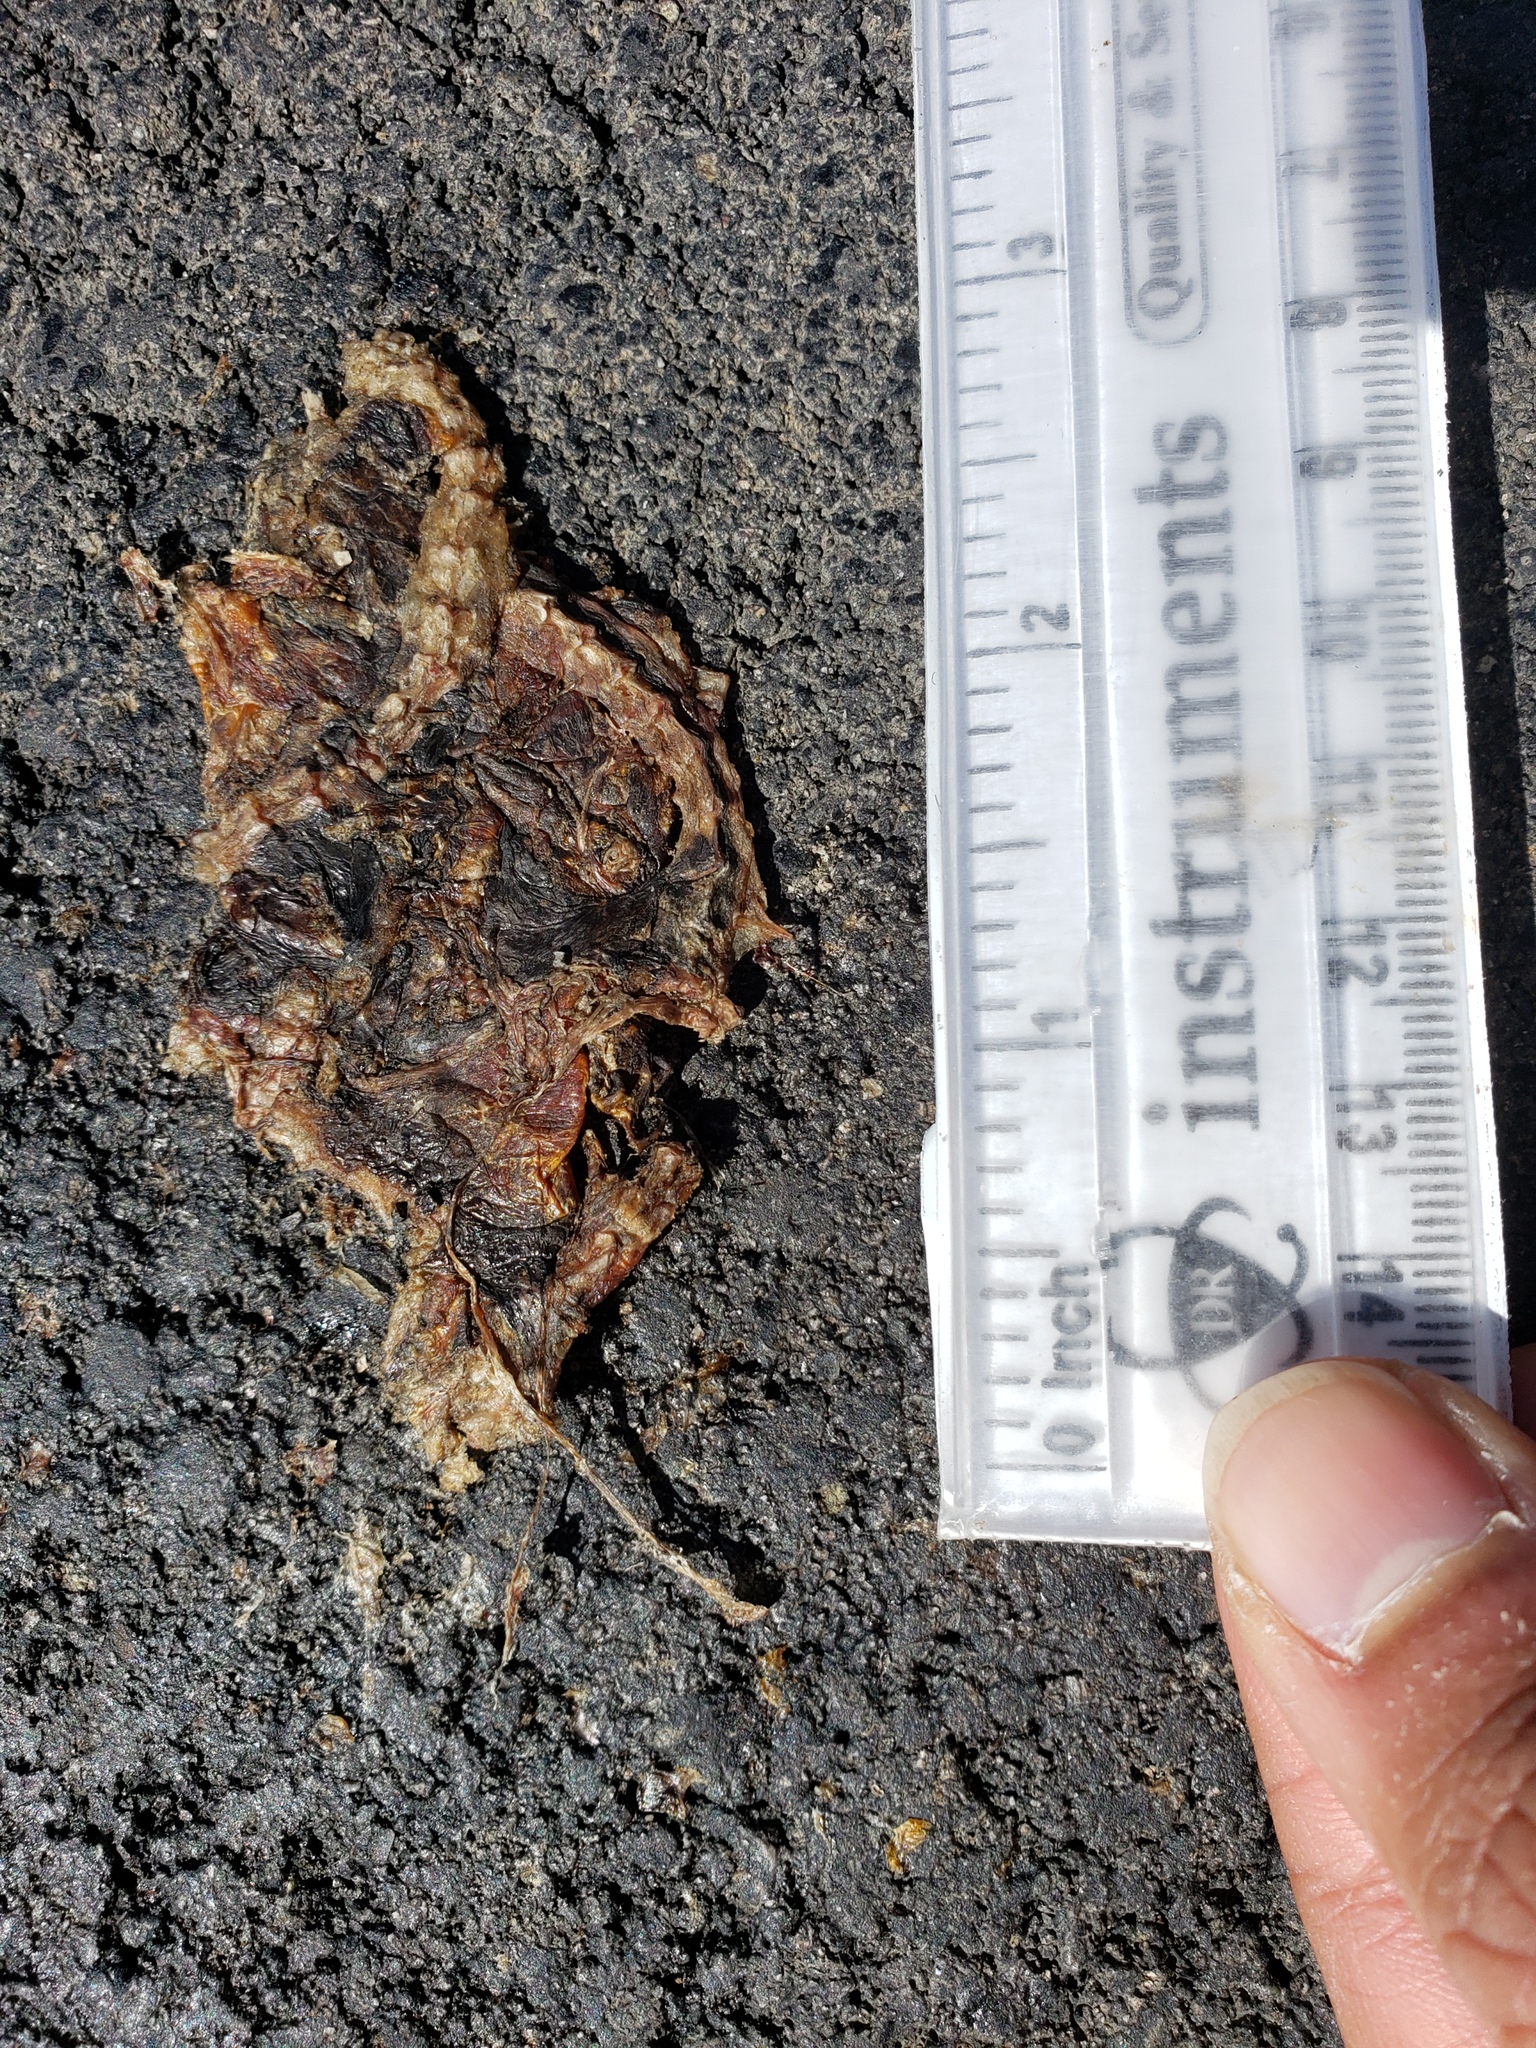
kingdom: Animalia
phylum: Chordata
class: Amphibia
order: Caudata
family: Salamandridae
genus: Taricha
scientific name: Taricha
